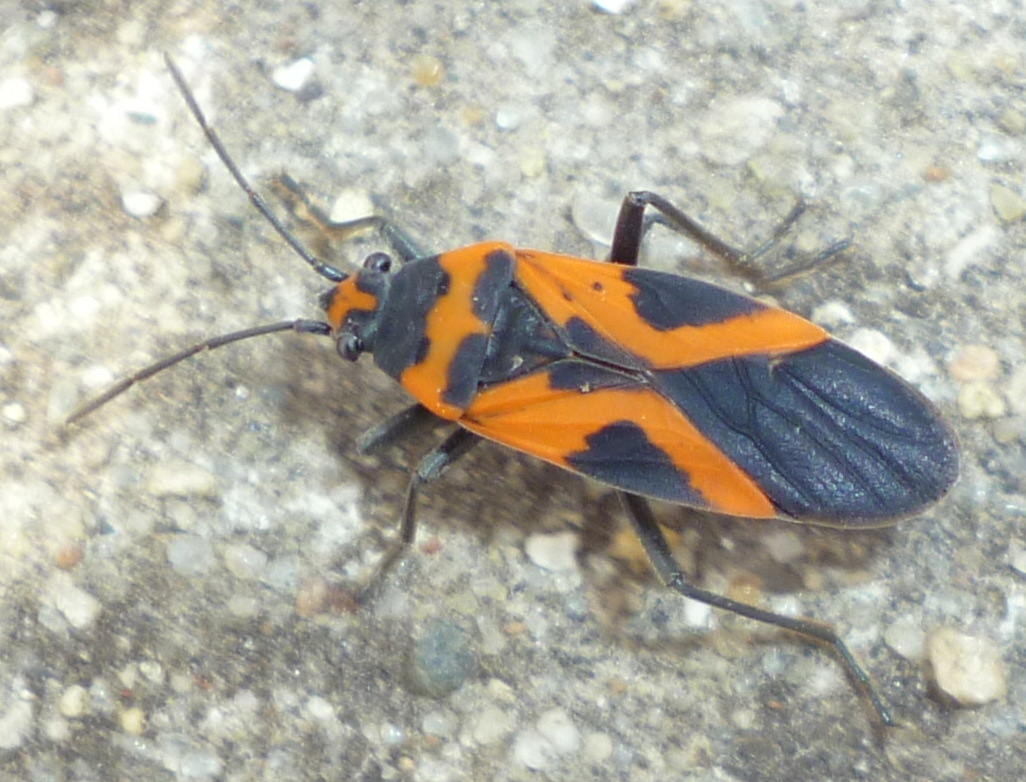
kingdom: Animalia
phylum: Arthropoda
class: Insecta
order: Hemiptera
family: Lygaeidae
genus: Lygaeus
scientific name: Lygaeus turcicus
